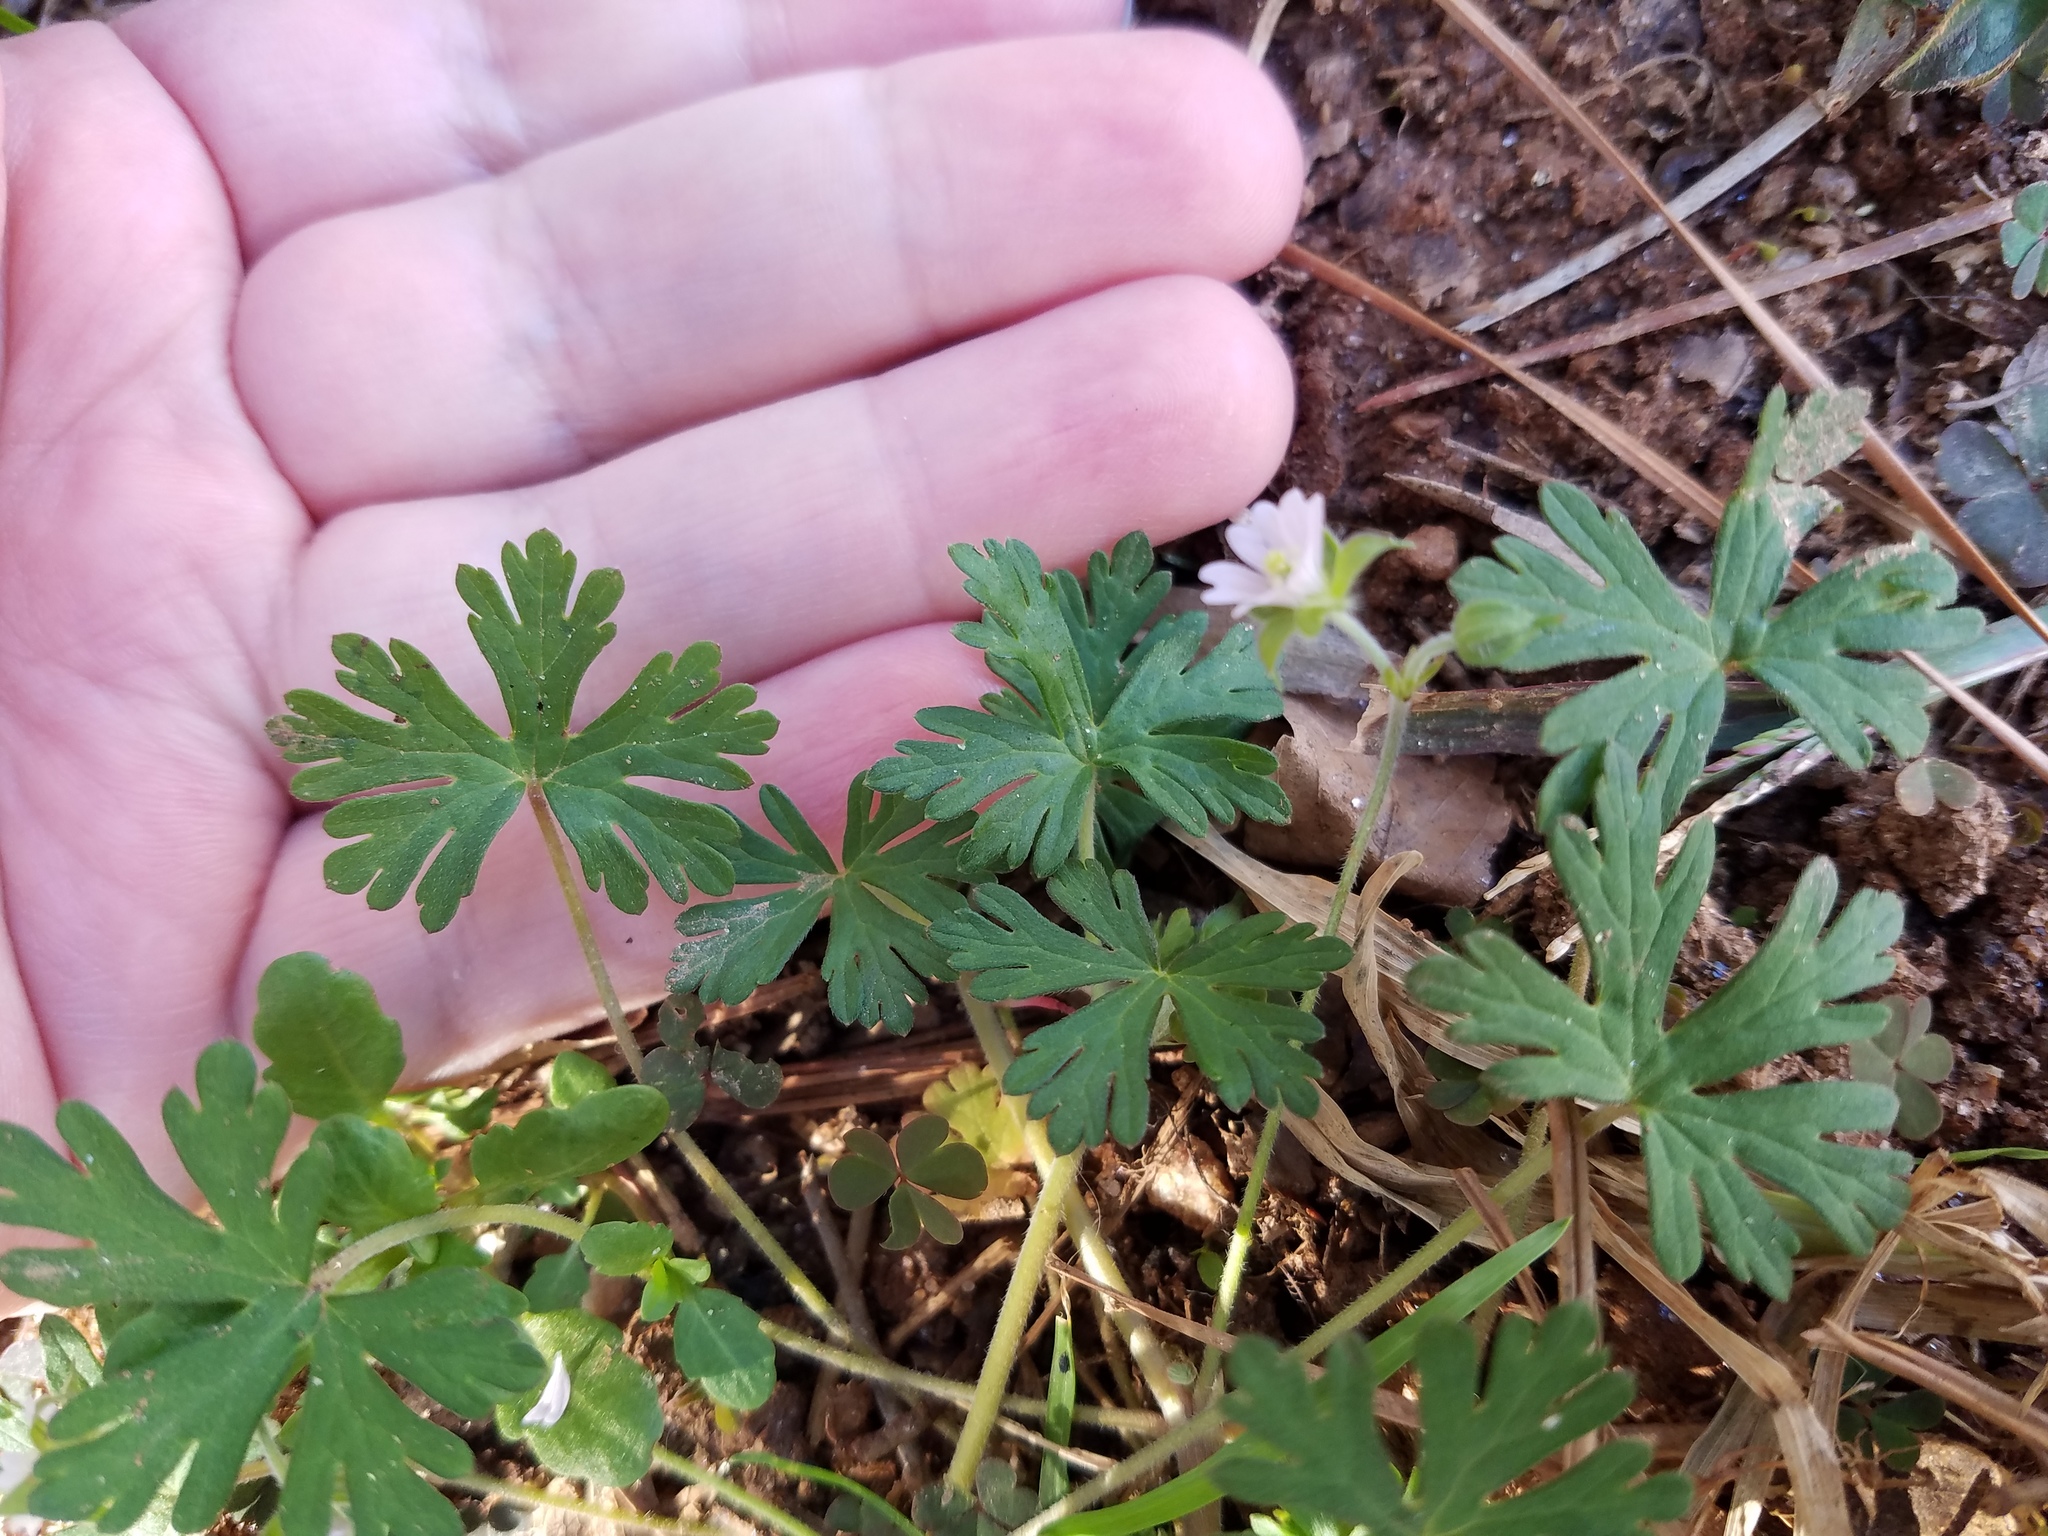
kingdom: Plantae
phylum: Tracheophyta
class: Magnoliopsida
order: Geraniales
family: Geraniaceae
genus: Geranium
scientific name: Geranium carolinianum
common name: Carolina crane's-bill
